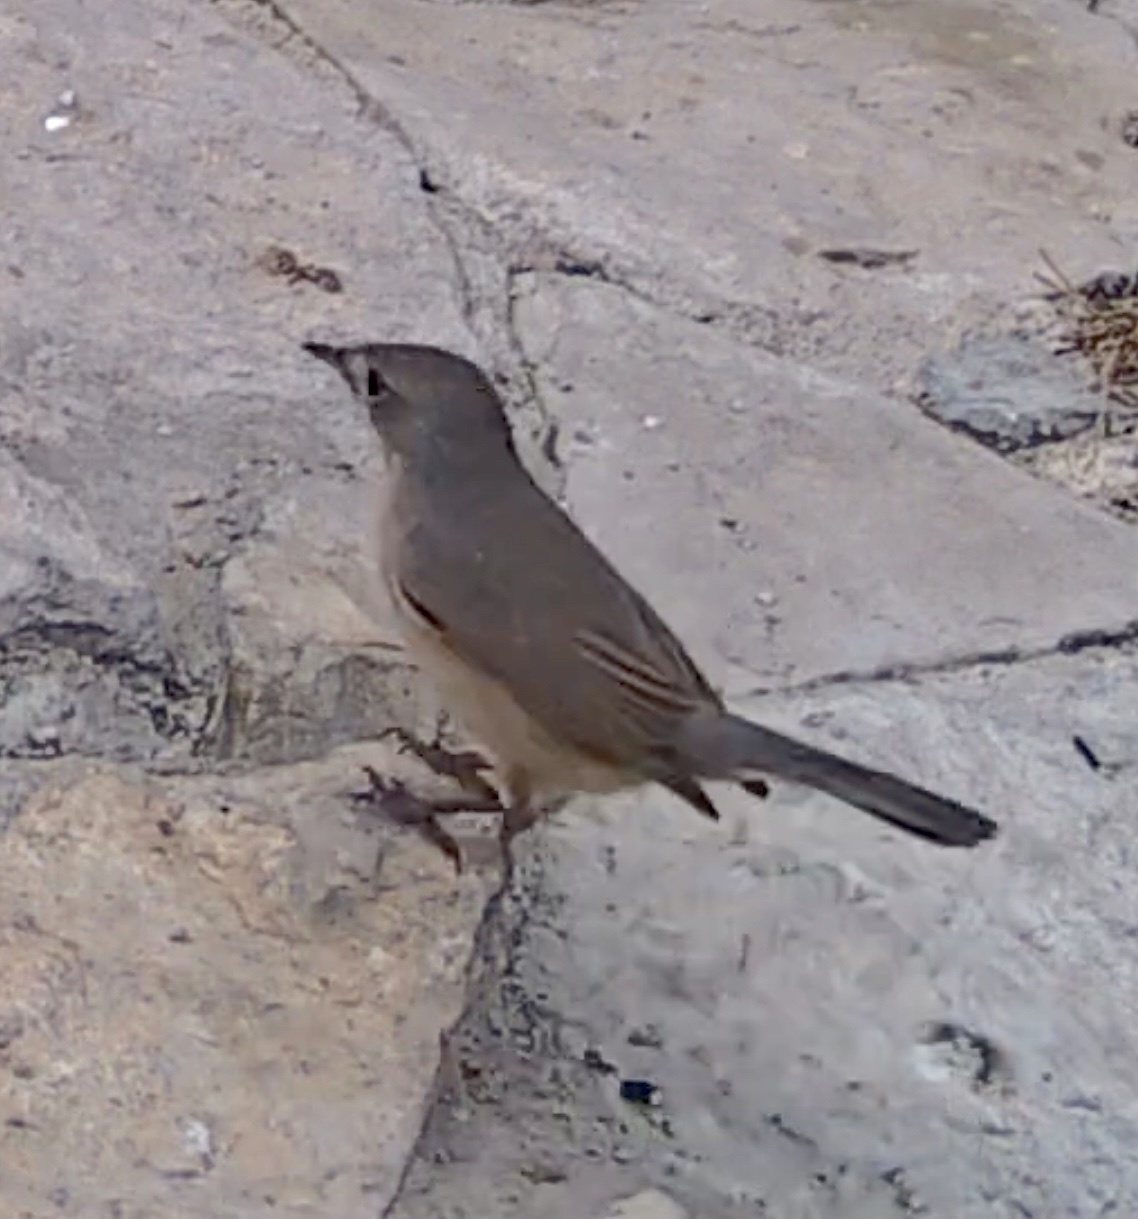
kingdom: Animalia
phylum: Chordata
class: Aves
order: Passeriformes
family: Sylviidae
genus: Curruca
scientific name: Curruca iberiae
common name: Western subalpine warbler
